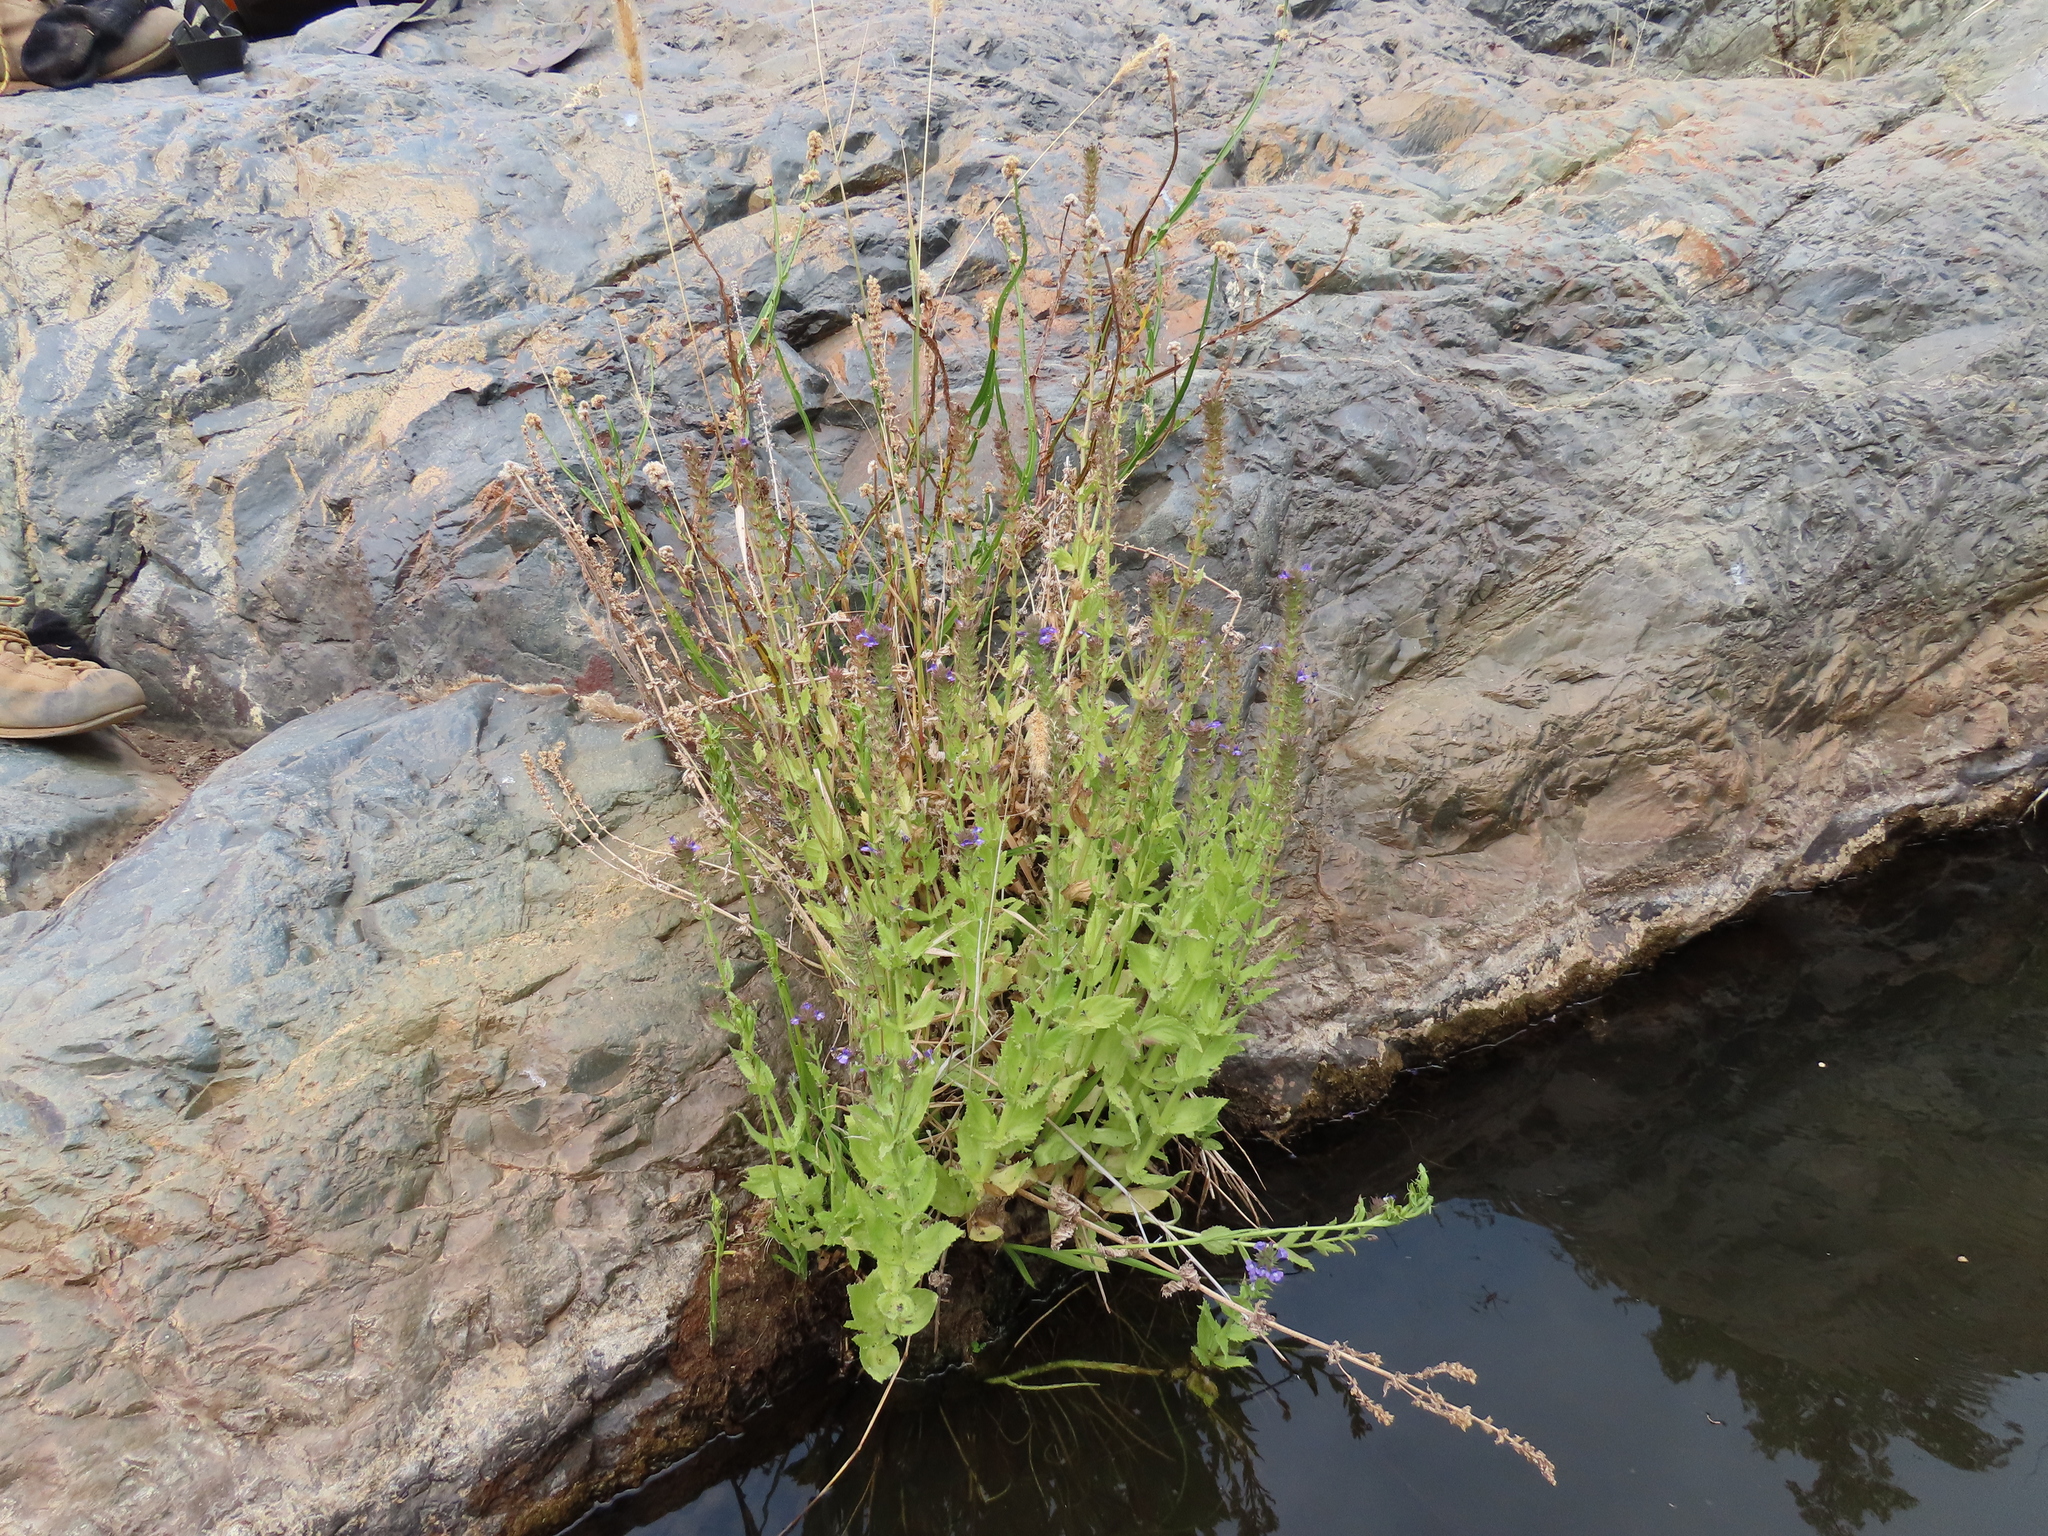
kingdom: Plantae
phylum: Tracheophyta
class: Magnoliopsida
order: Lamiales
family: Plantaginaceae
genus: Stemodia
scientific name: Stemodia durantifolia
